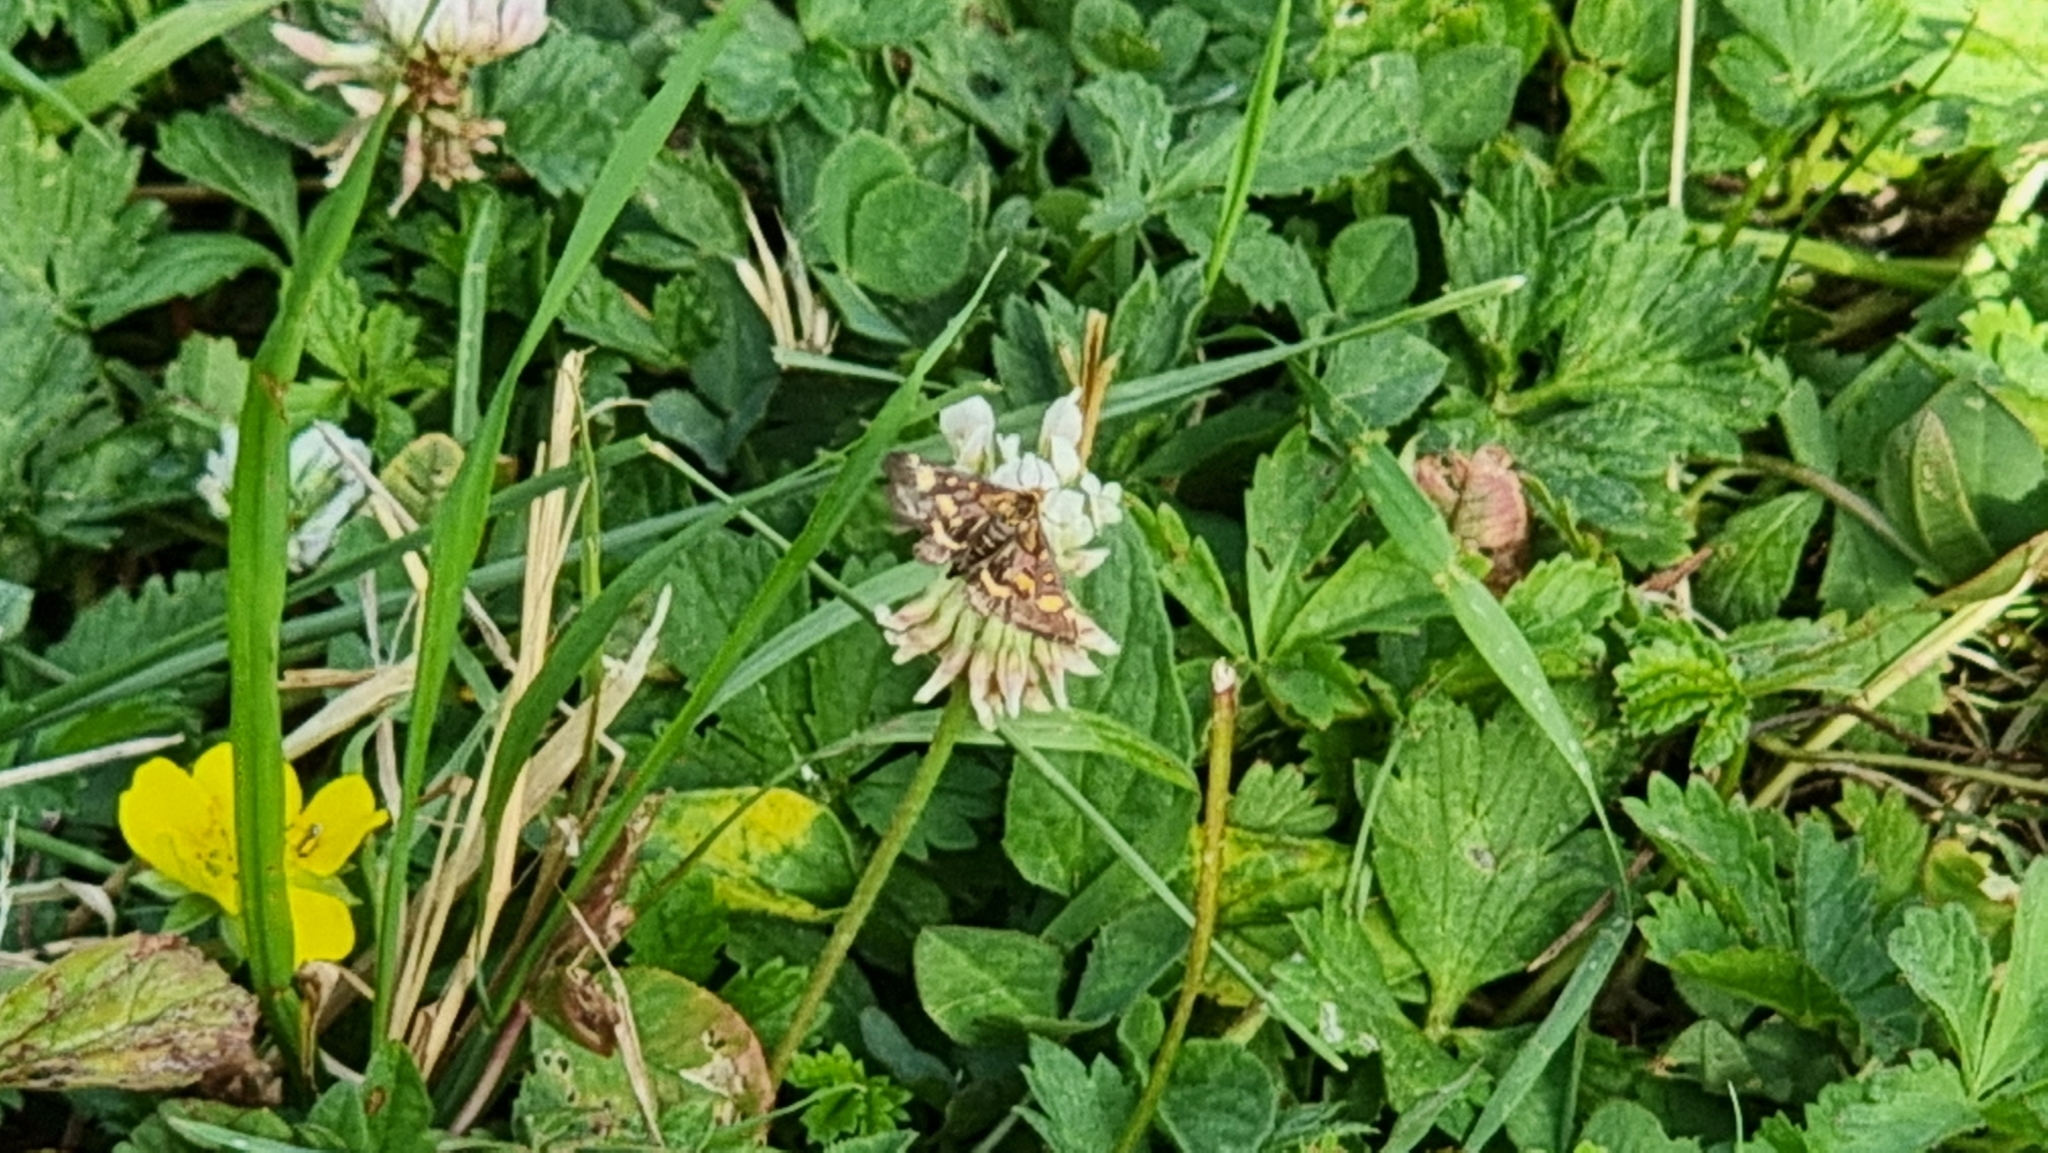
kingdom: Animalia
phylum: Arthropoda
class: Insecta
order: Lepidoptera
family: Crambidae
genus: Pyrausta
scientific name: Pyrausta purpuralis
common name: Common purple & gold
